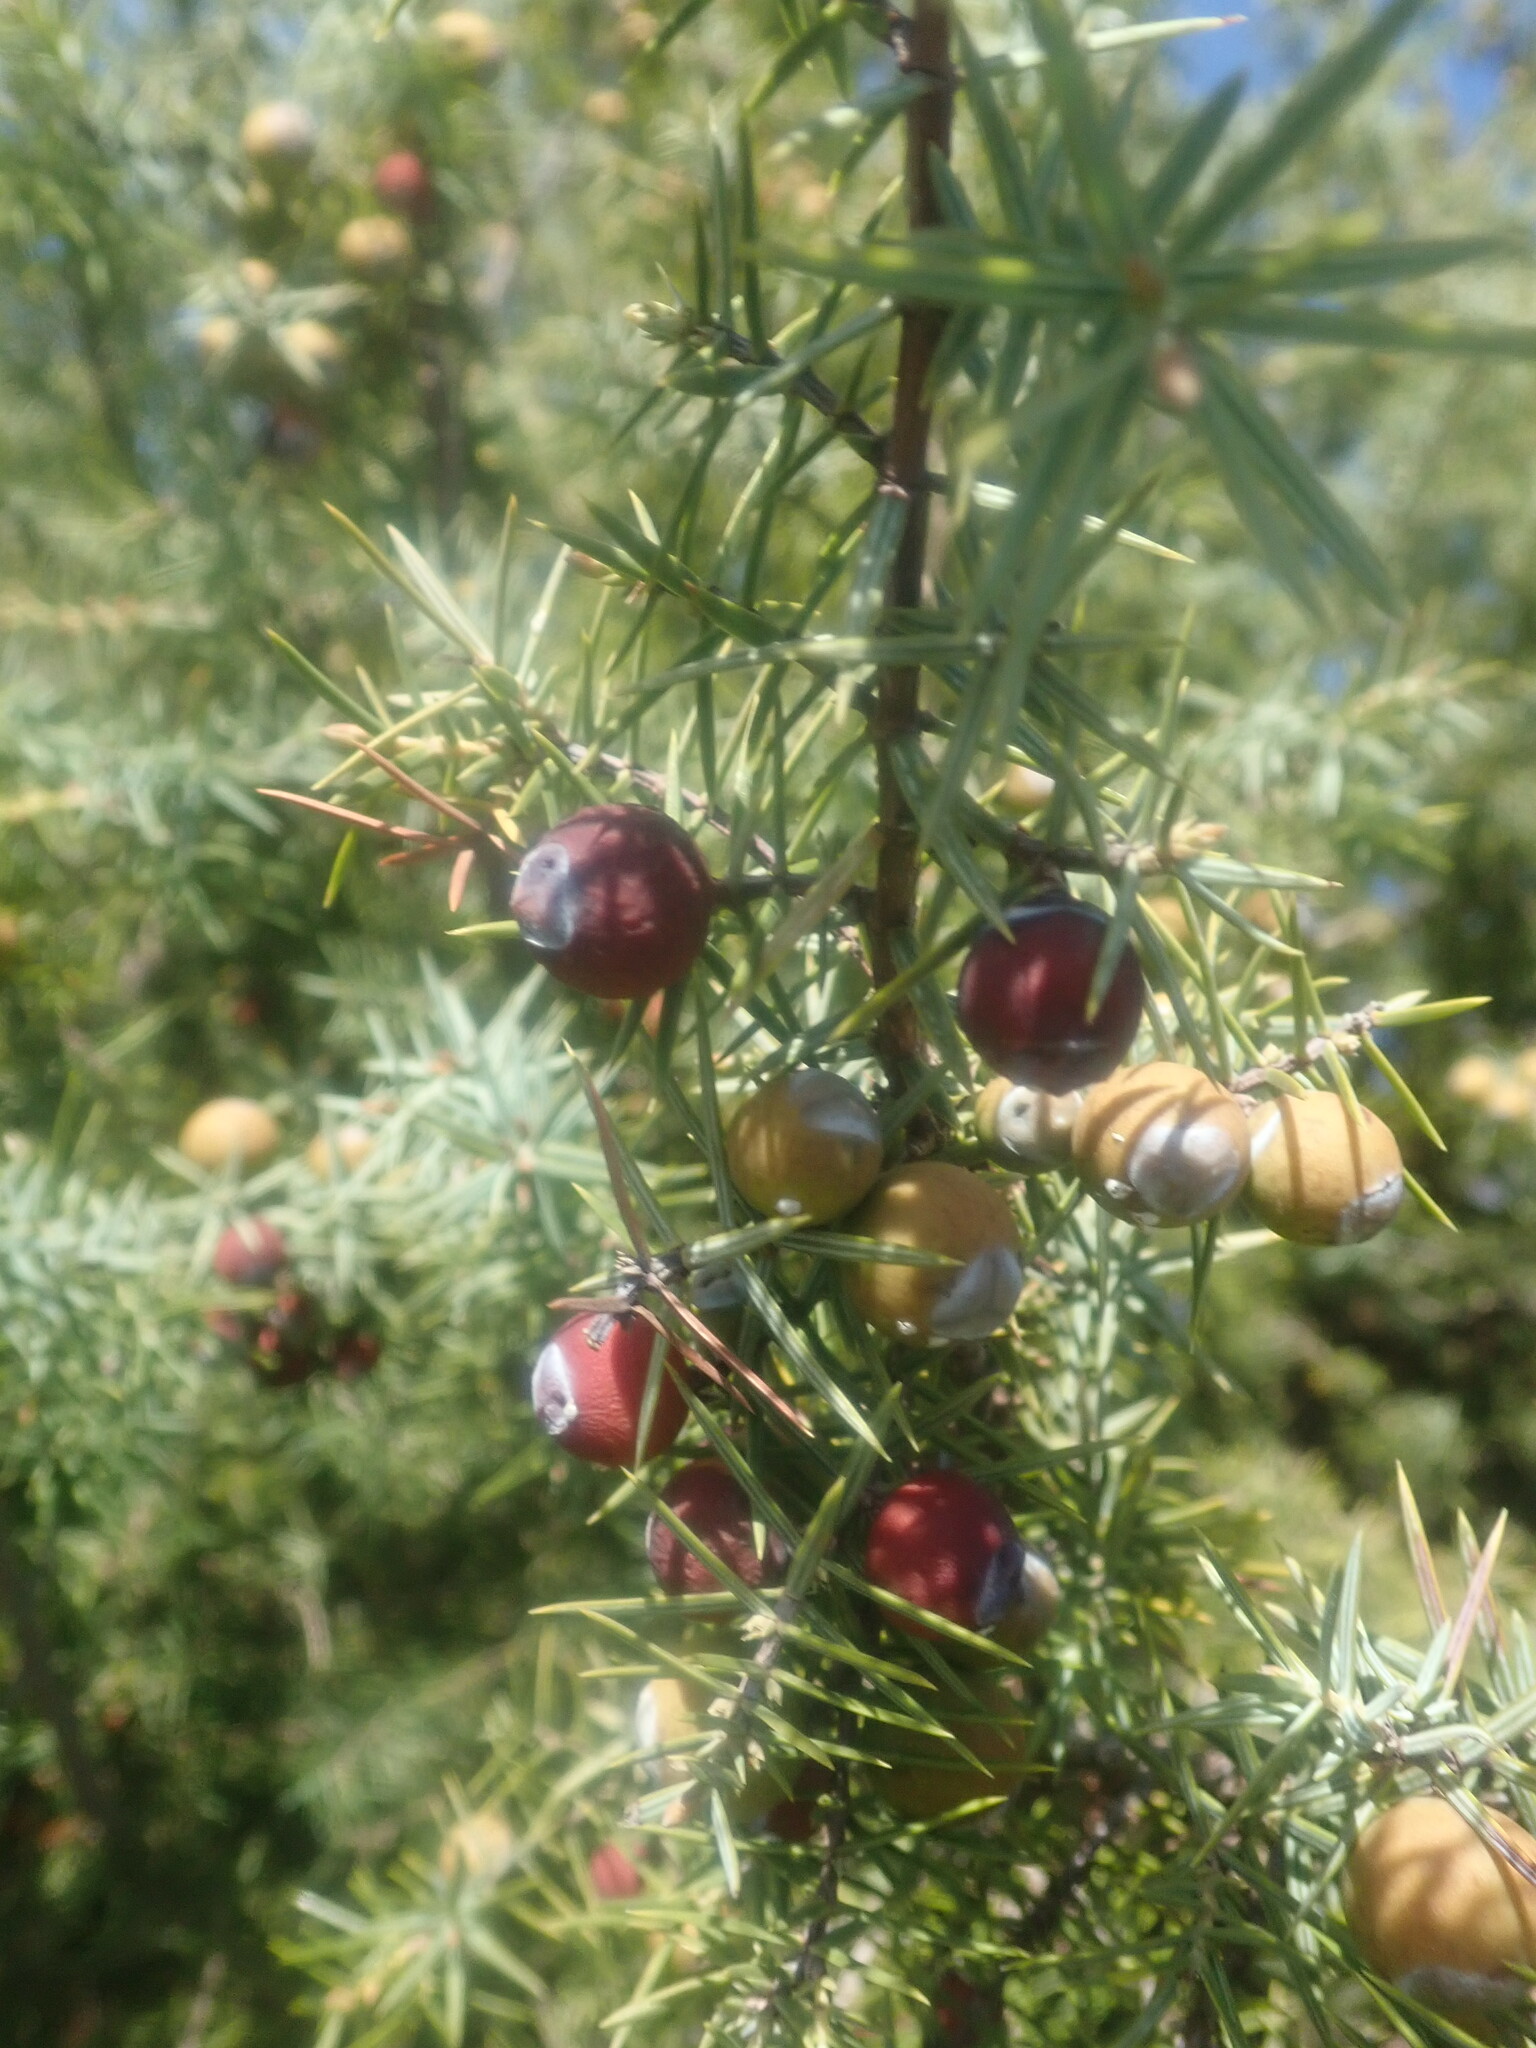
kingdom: Plantae
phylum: Tracheophyta
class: Pinopsida
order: Pinales
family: Cupressaceae
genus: Juniperus
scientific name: Juniperus oxycedrus
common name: Prickly juniper
